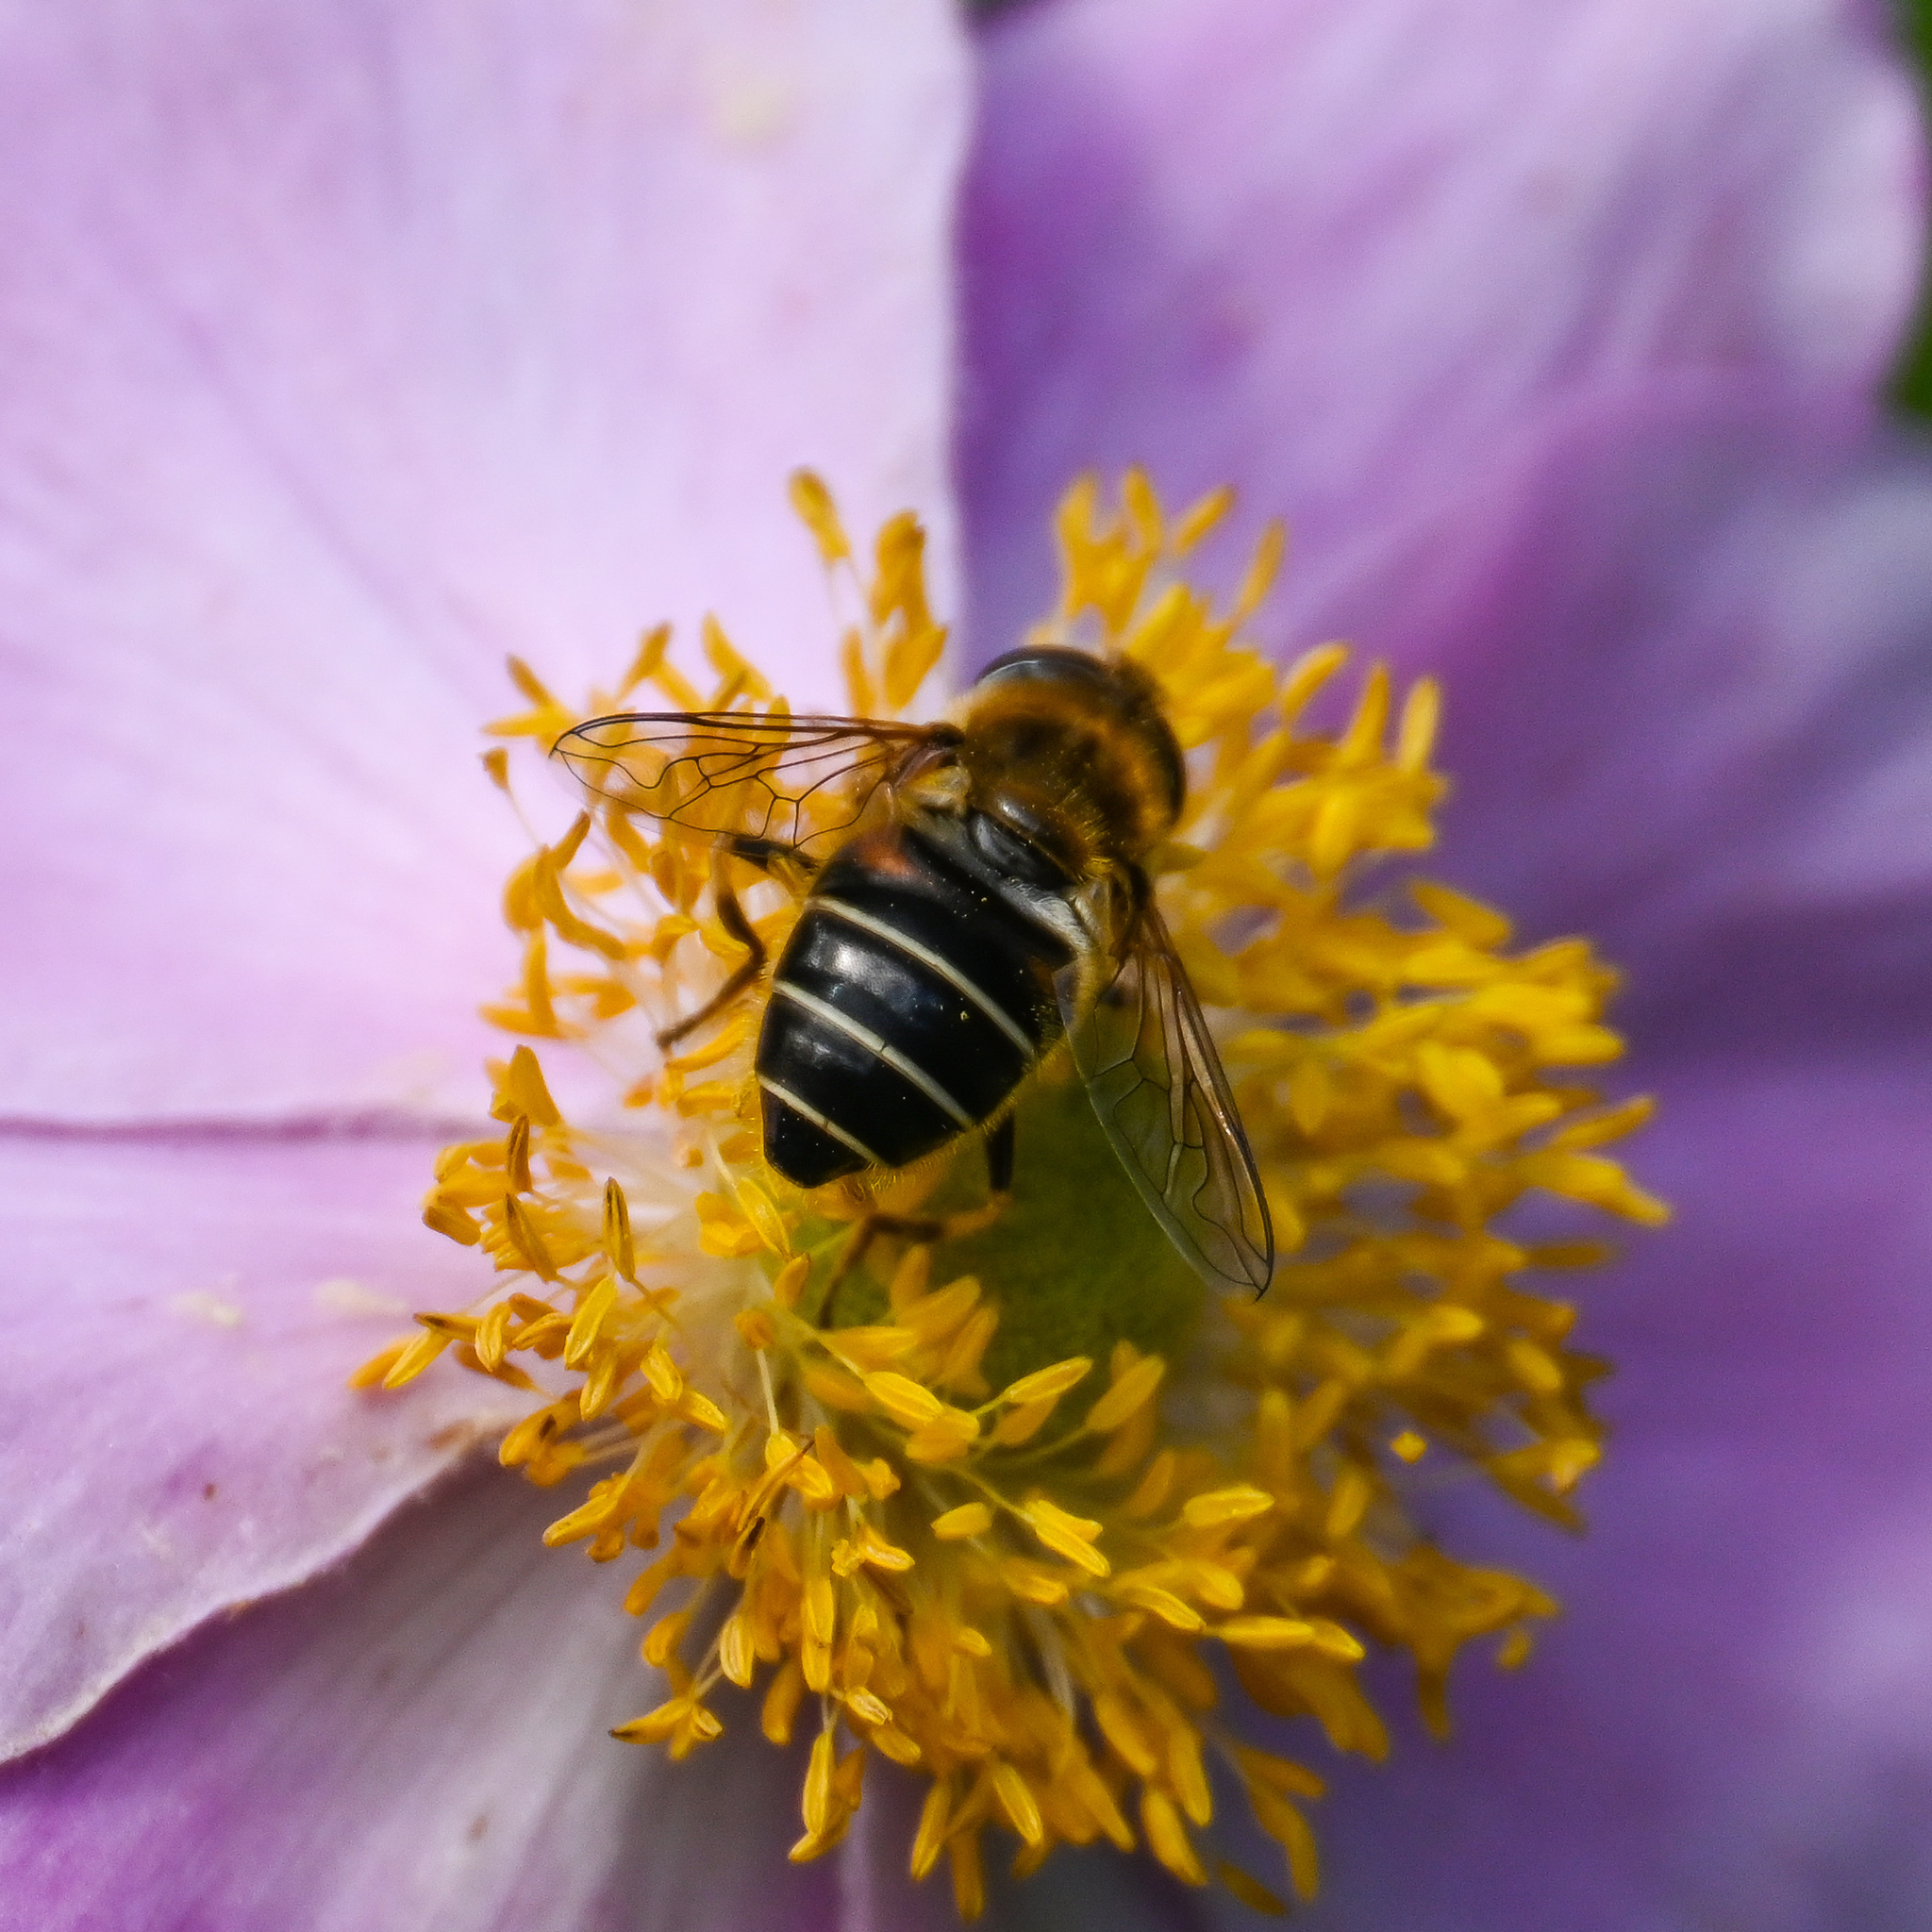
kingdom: Animalia
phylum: Arthropoda
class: Insecta
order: Diptera
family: Syrphidae
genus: Eoseristalis
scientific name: Eoseristalis
